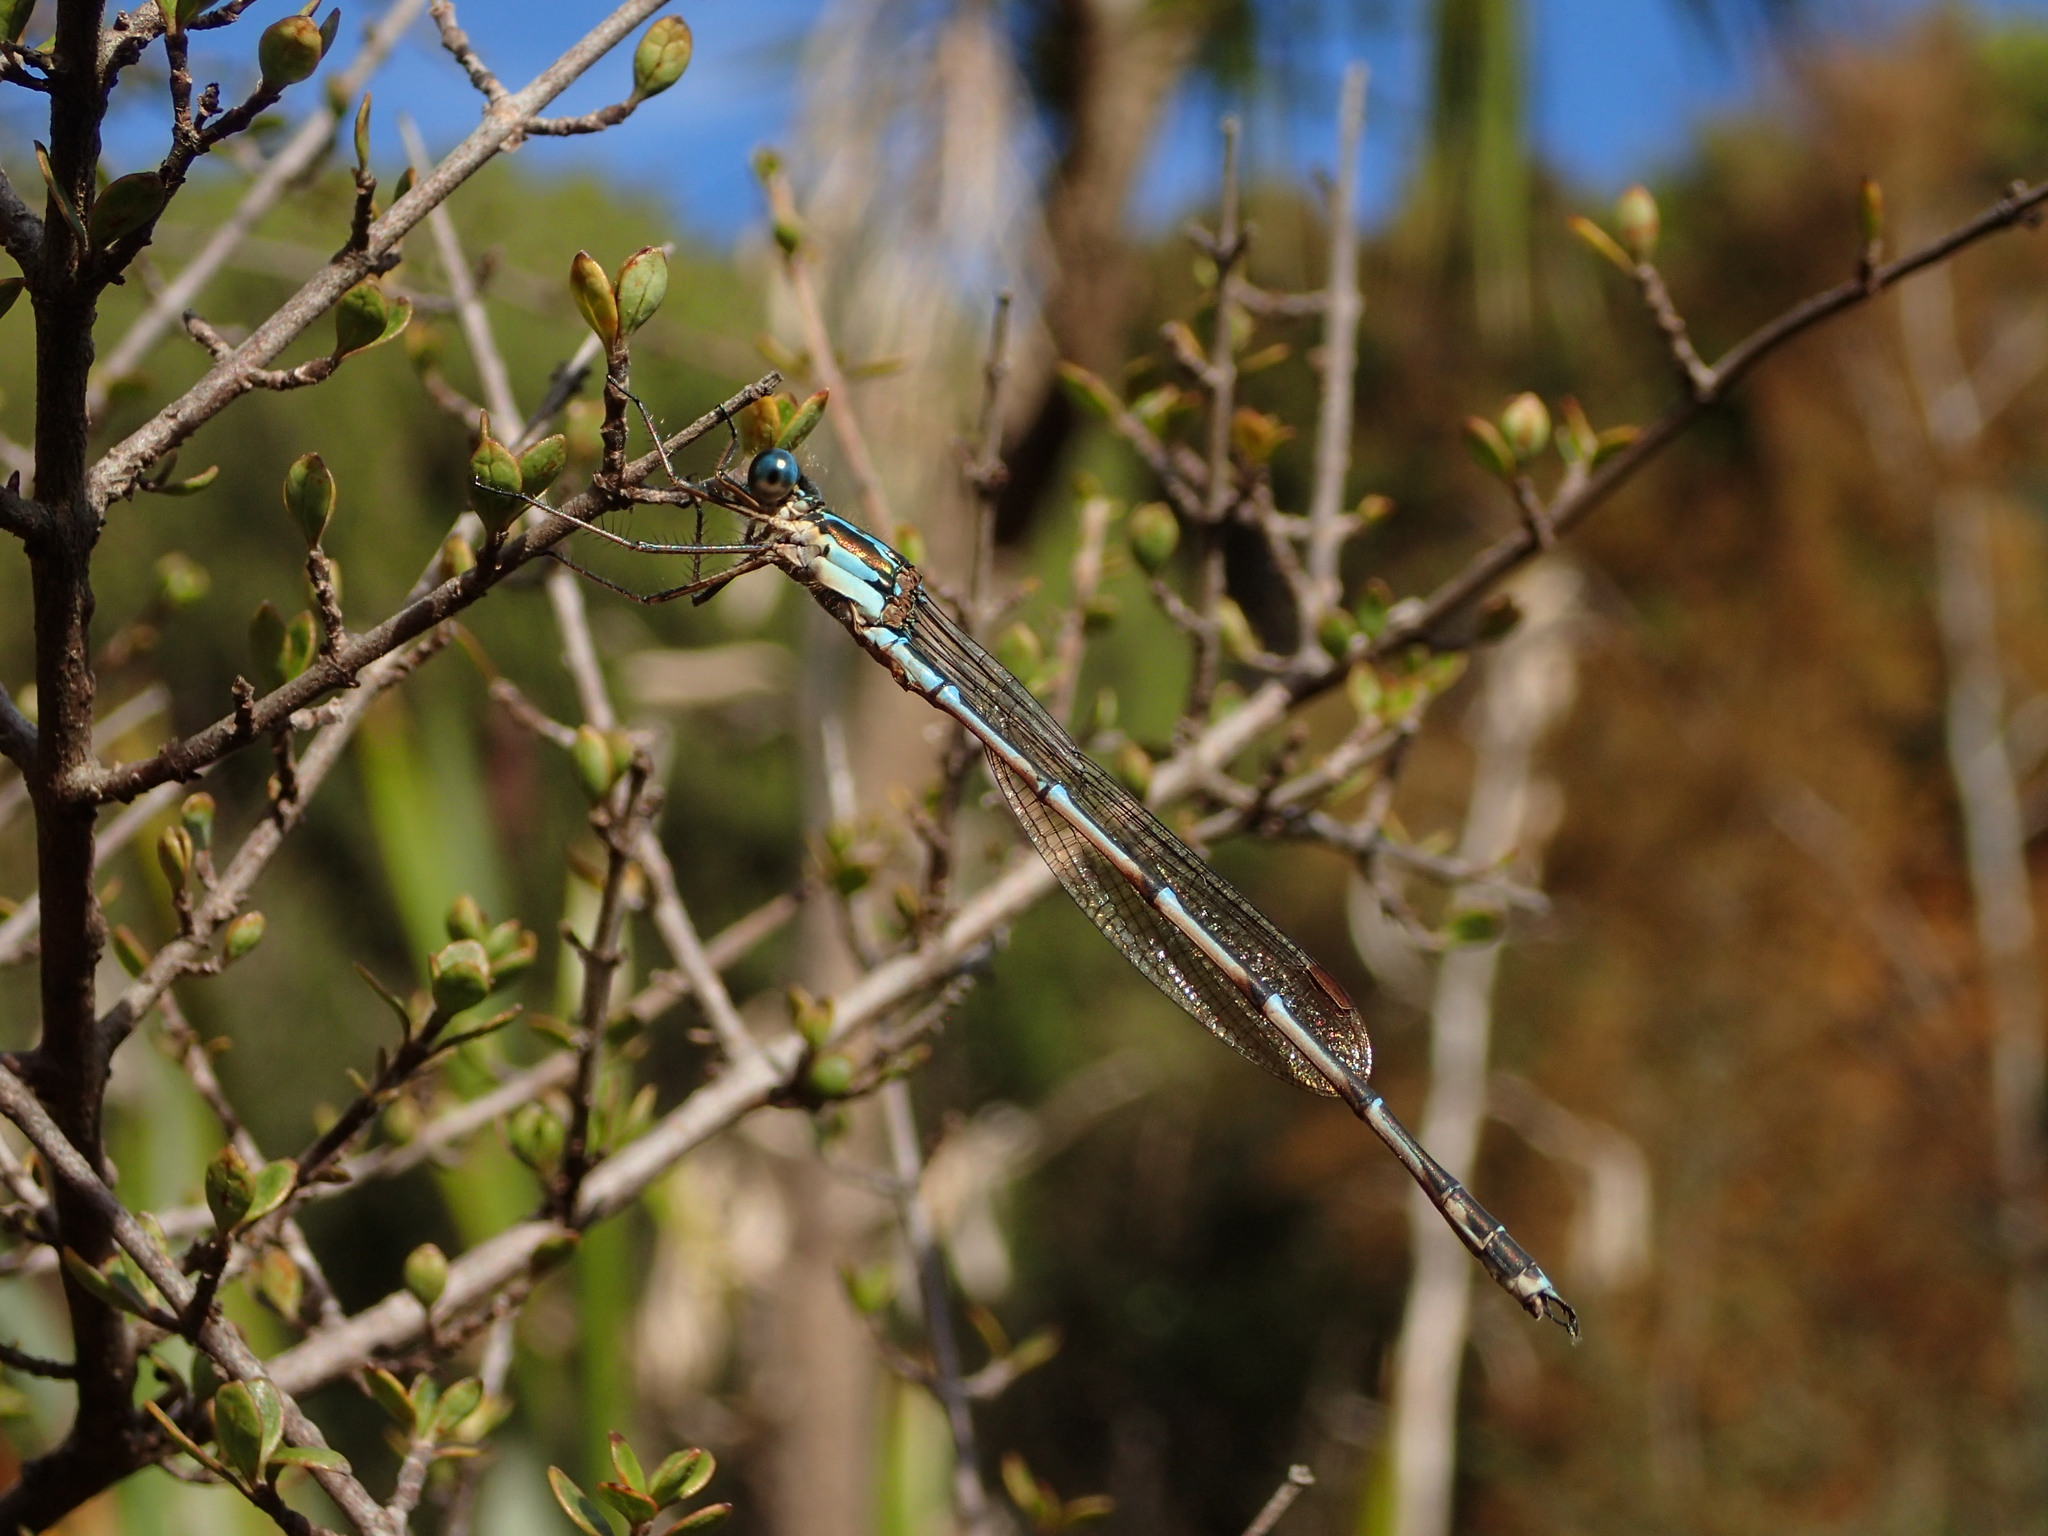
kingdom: Animalia
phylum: Arthropoda
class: Insecta
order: Odonata
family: Lestidae
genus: Austrolestes
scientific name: Austrolestes colensonis
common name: Blue damselfly
